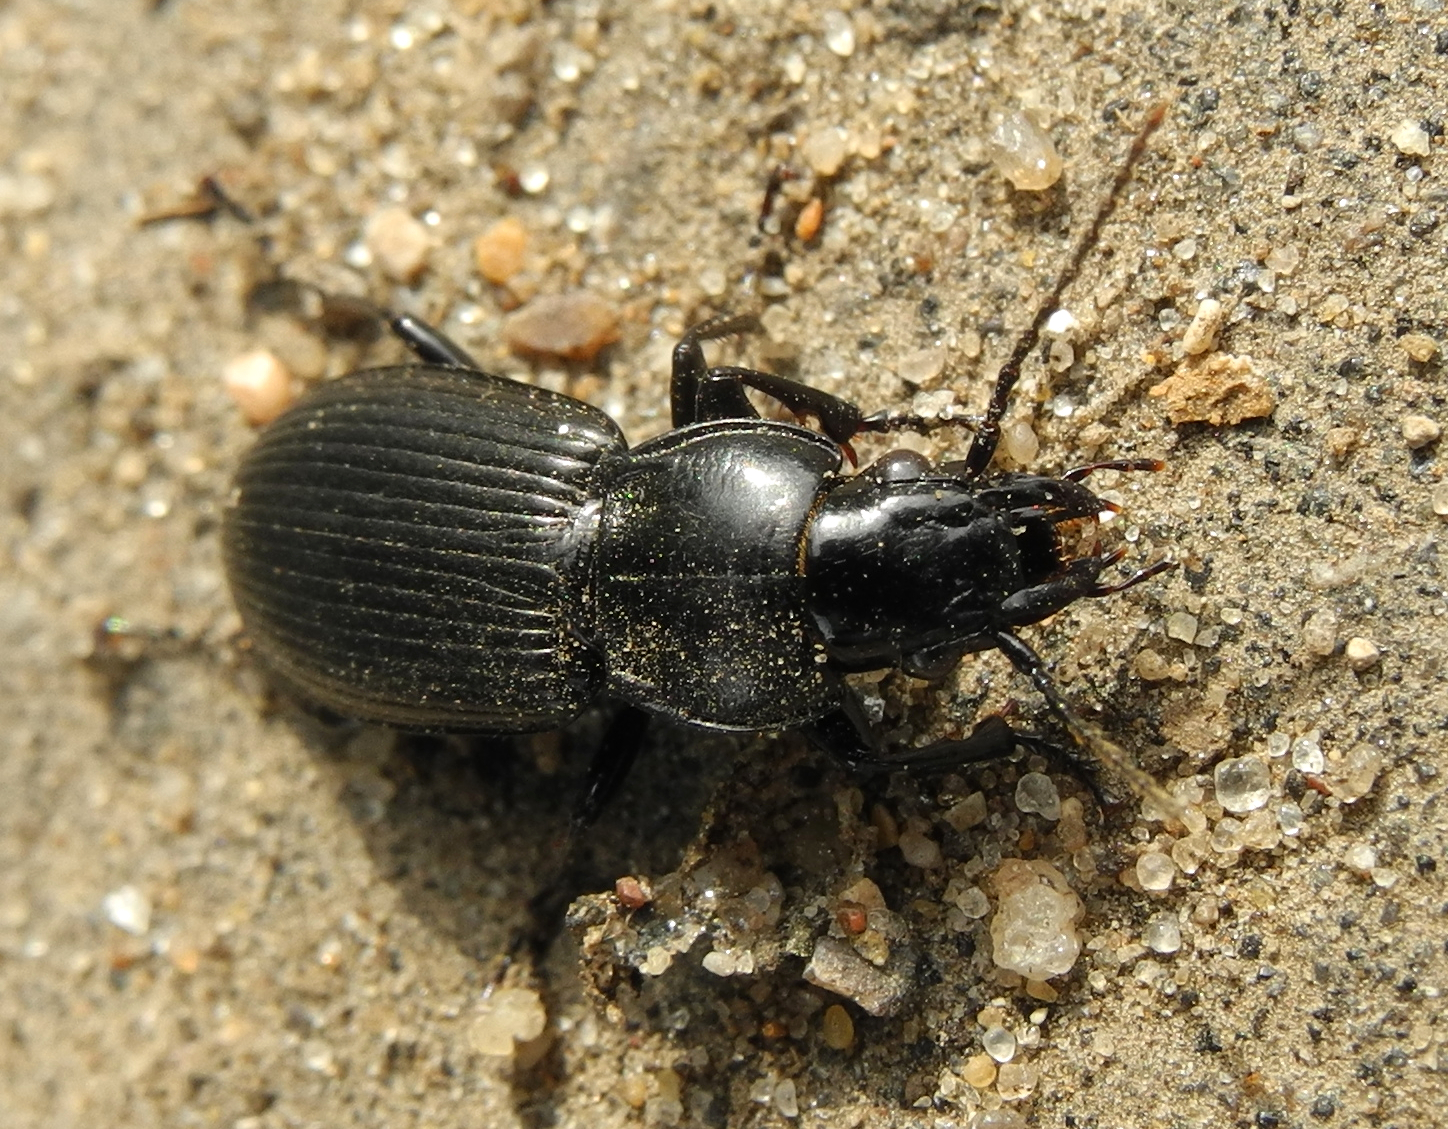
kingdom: Animalia
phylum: Arthropoda
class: Insecta
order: Coleoptera
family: Carabidae
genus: Pterostichus
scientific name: Pterostichus melanarius
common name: European dark harp ground beetle
